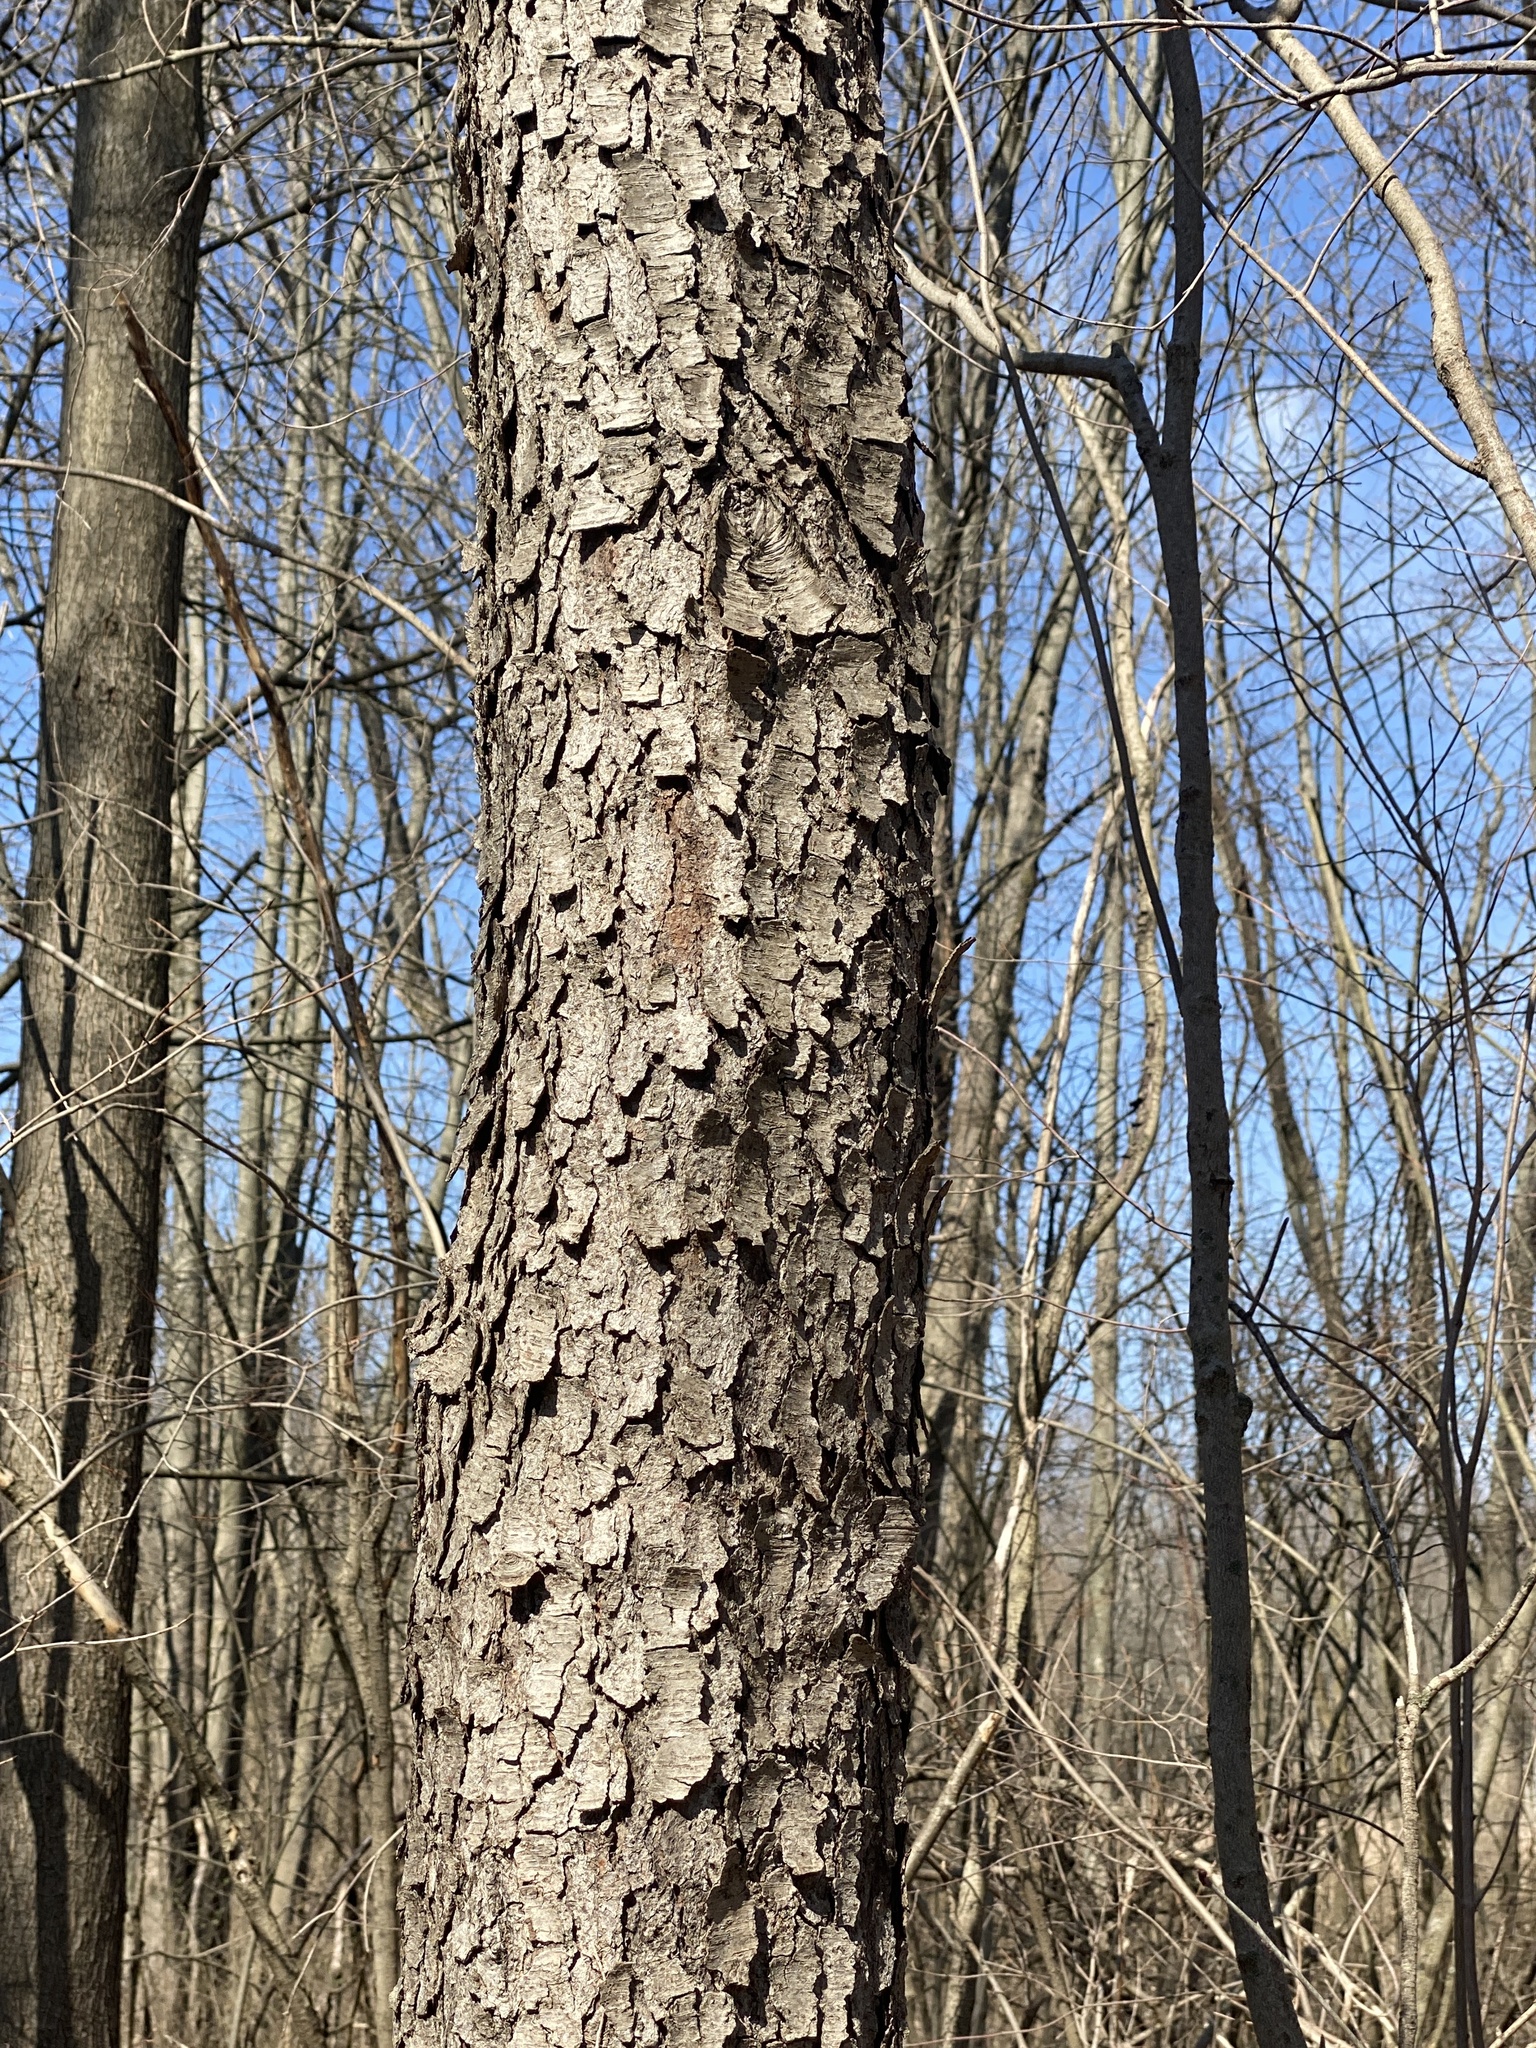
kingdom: Plantae
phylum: Tracheophyta
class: Magnoliopsida
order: Rosales
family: Rosaceae
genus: Prunus
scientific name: Prunus serotina
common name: Black cherry
